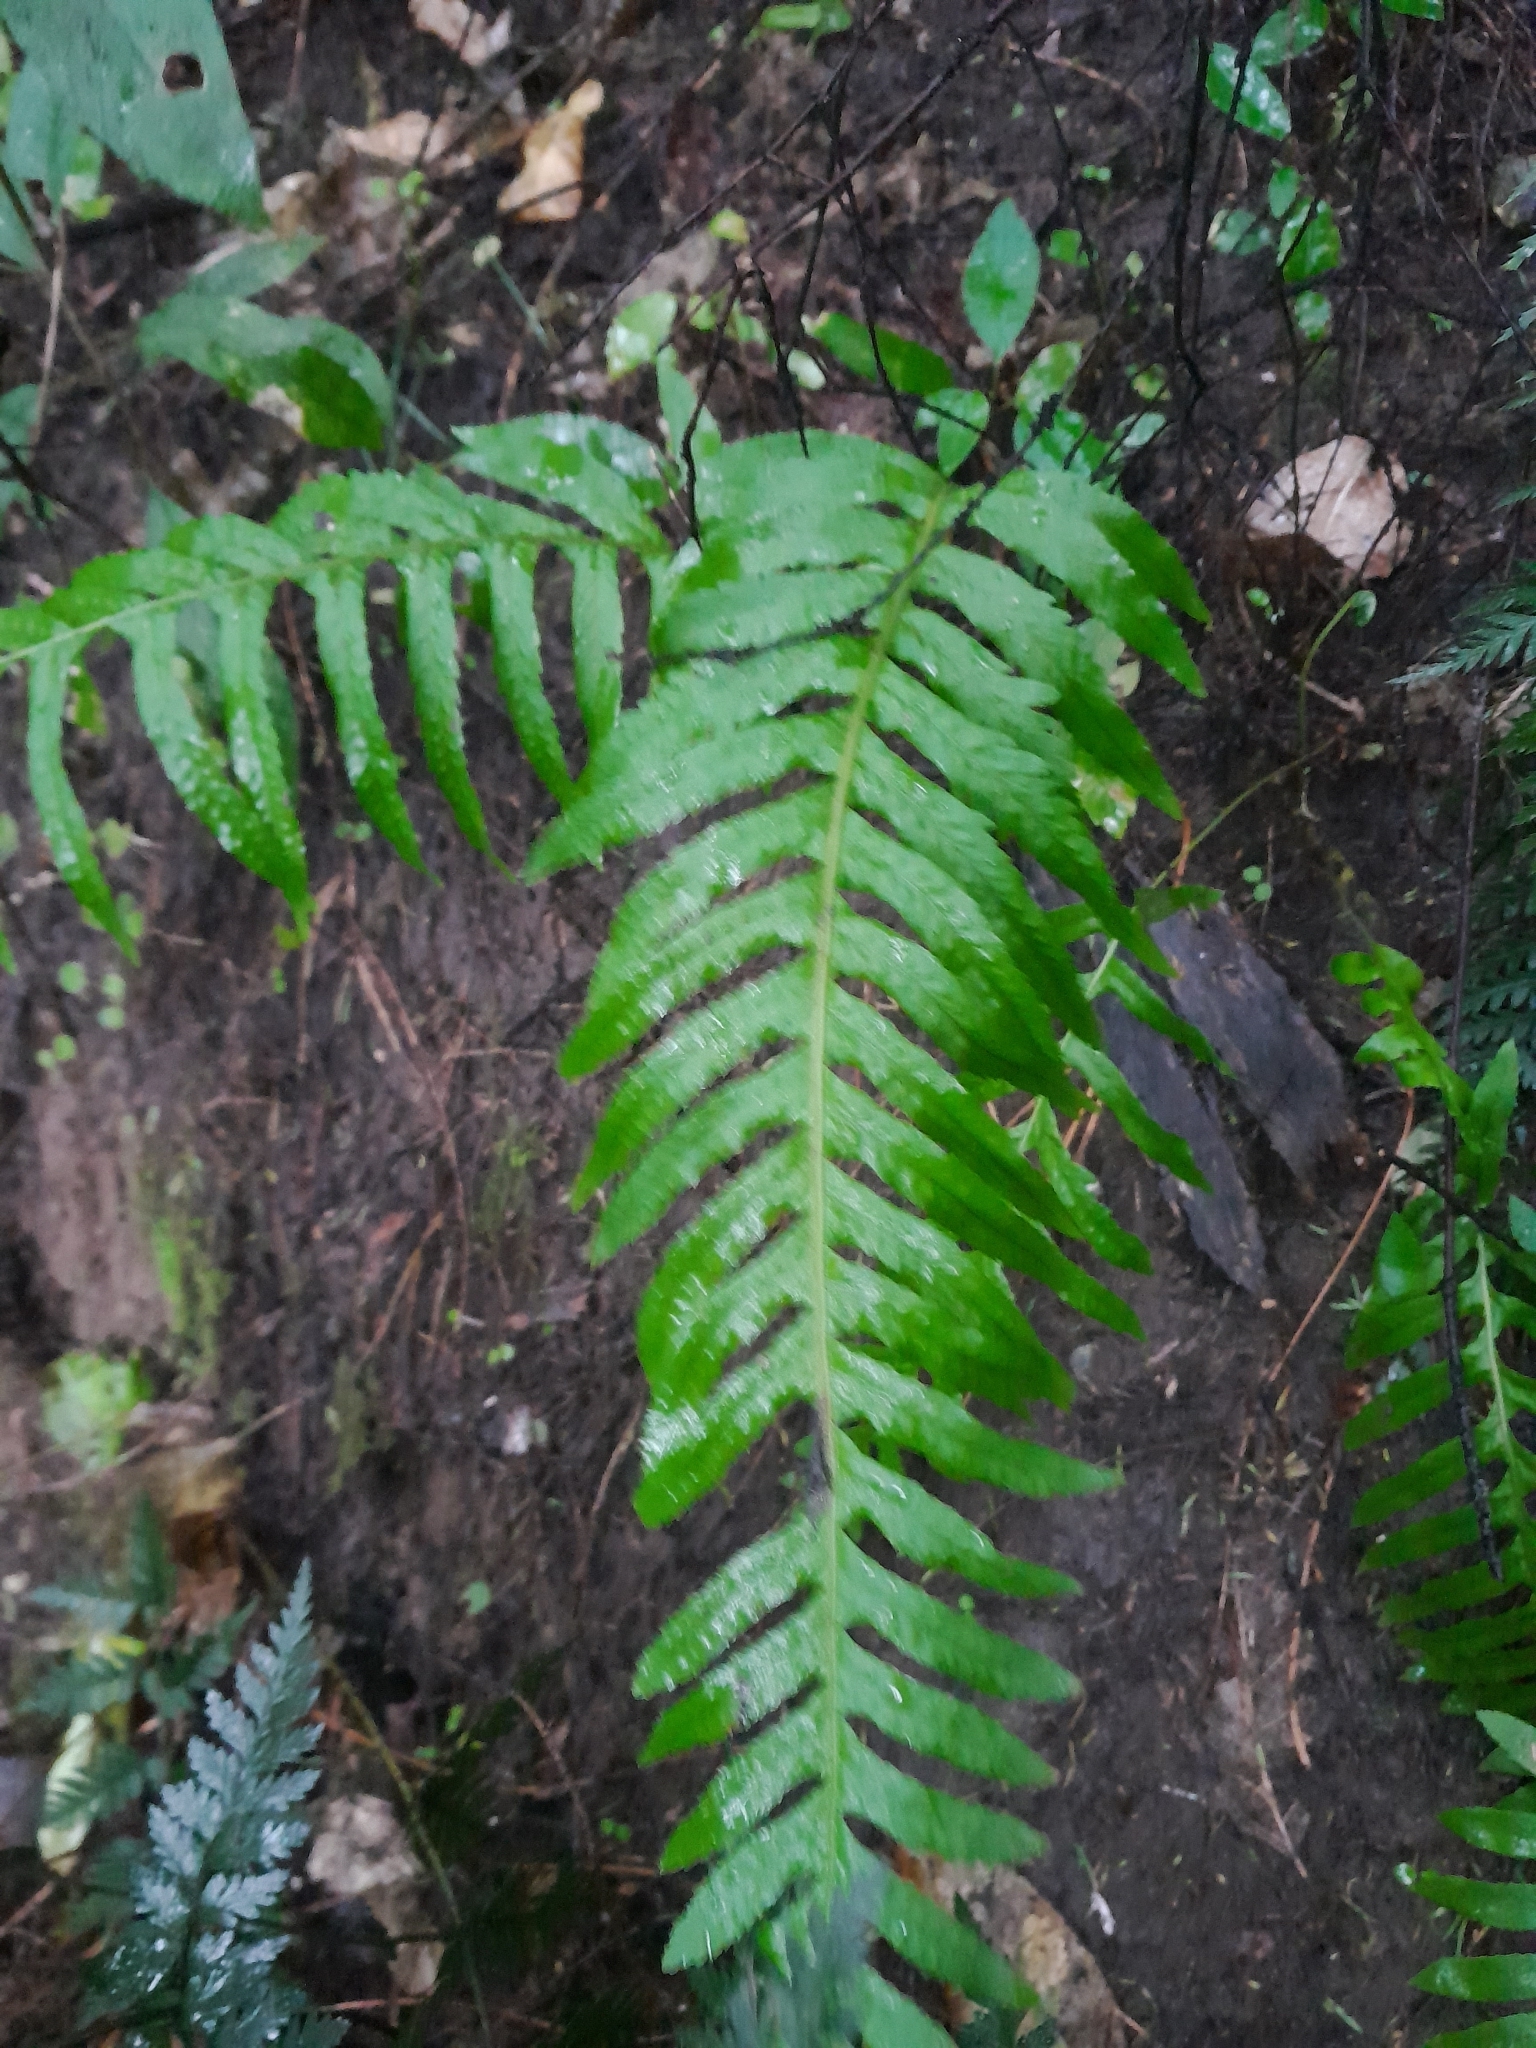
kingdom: Plantae
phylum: Tracheophyta
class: Polypodiopsida
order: Polypodiales
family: Polypodiaceae
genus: Polypodium
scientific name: Polypodium vulgare
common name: Common polypody
